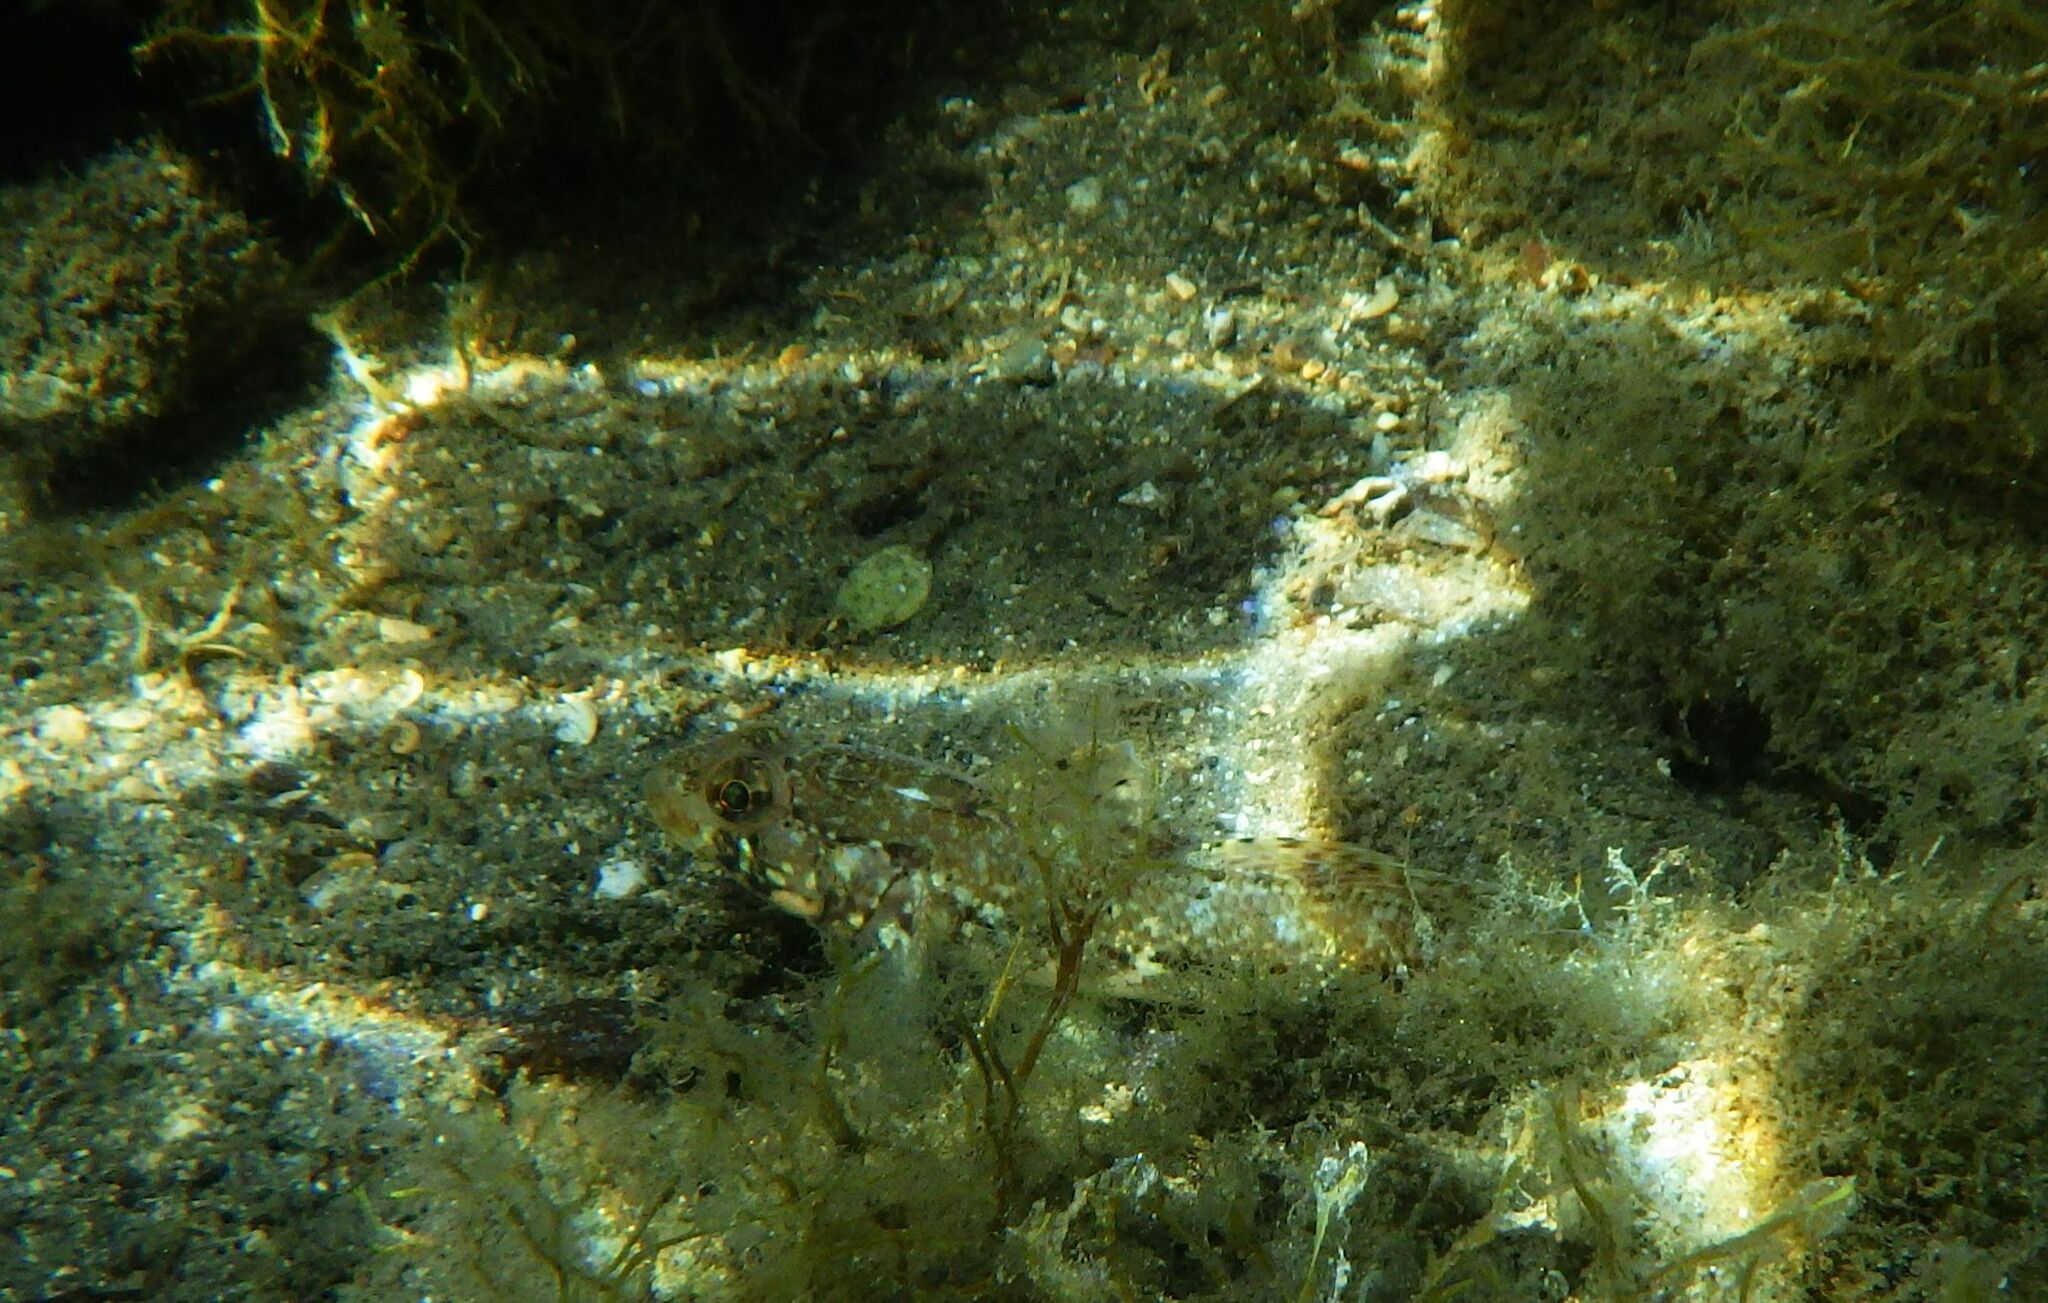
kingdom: Animalia
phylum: Chordata
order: Perciformes
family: Gobiidae
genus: Gobius
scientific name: Gobius geniporus
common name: Slender goby
